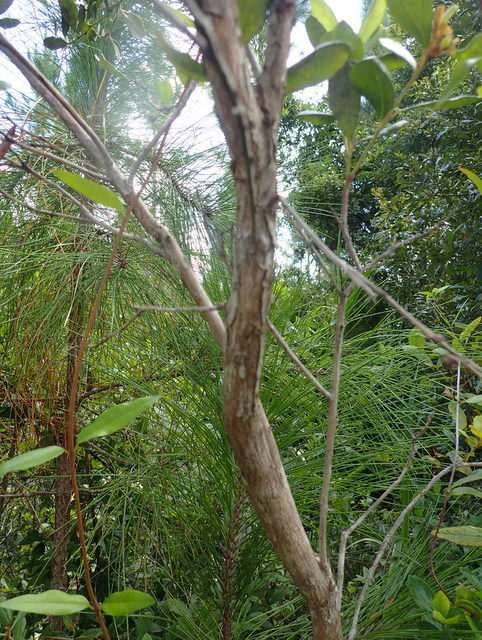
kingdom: Plantae
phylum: Tracheophyta
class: Magnoliopsida
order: Ericales
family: Ericaceae
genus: Lyonia
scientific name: Lyonia ferruginea
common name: Rusty lyonia
